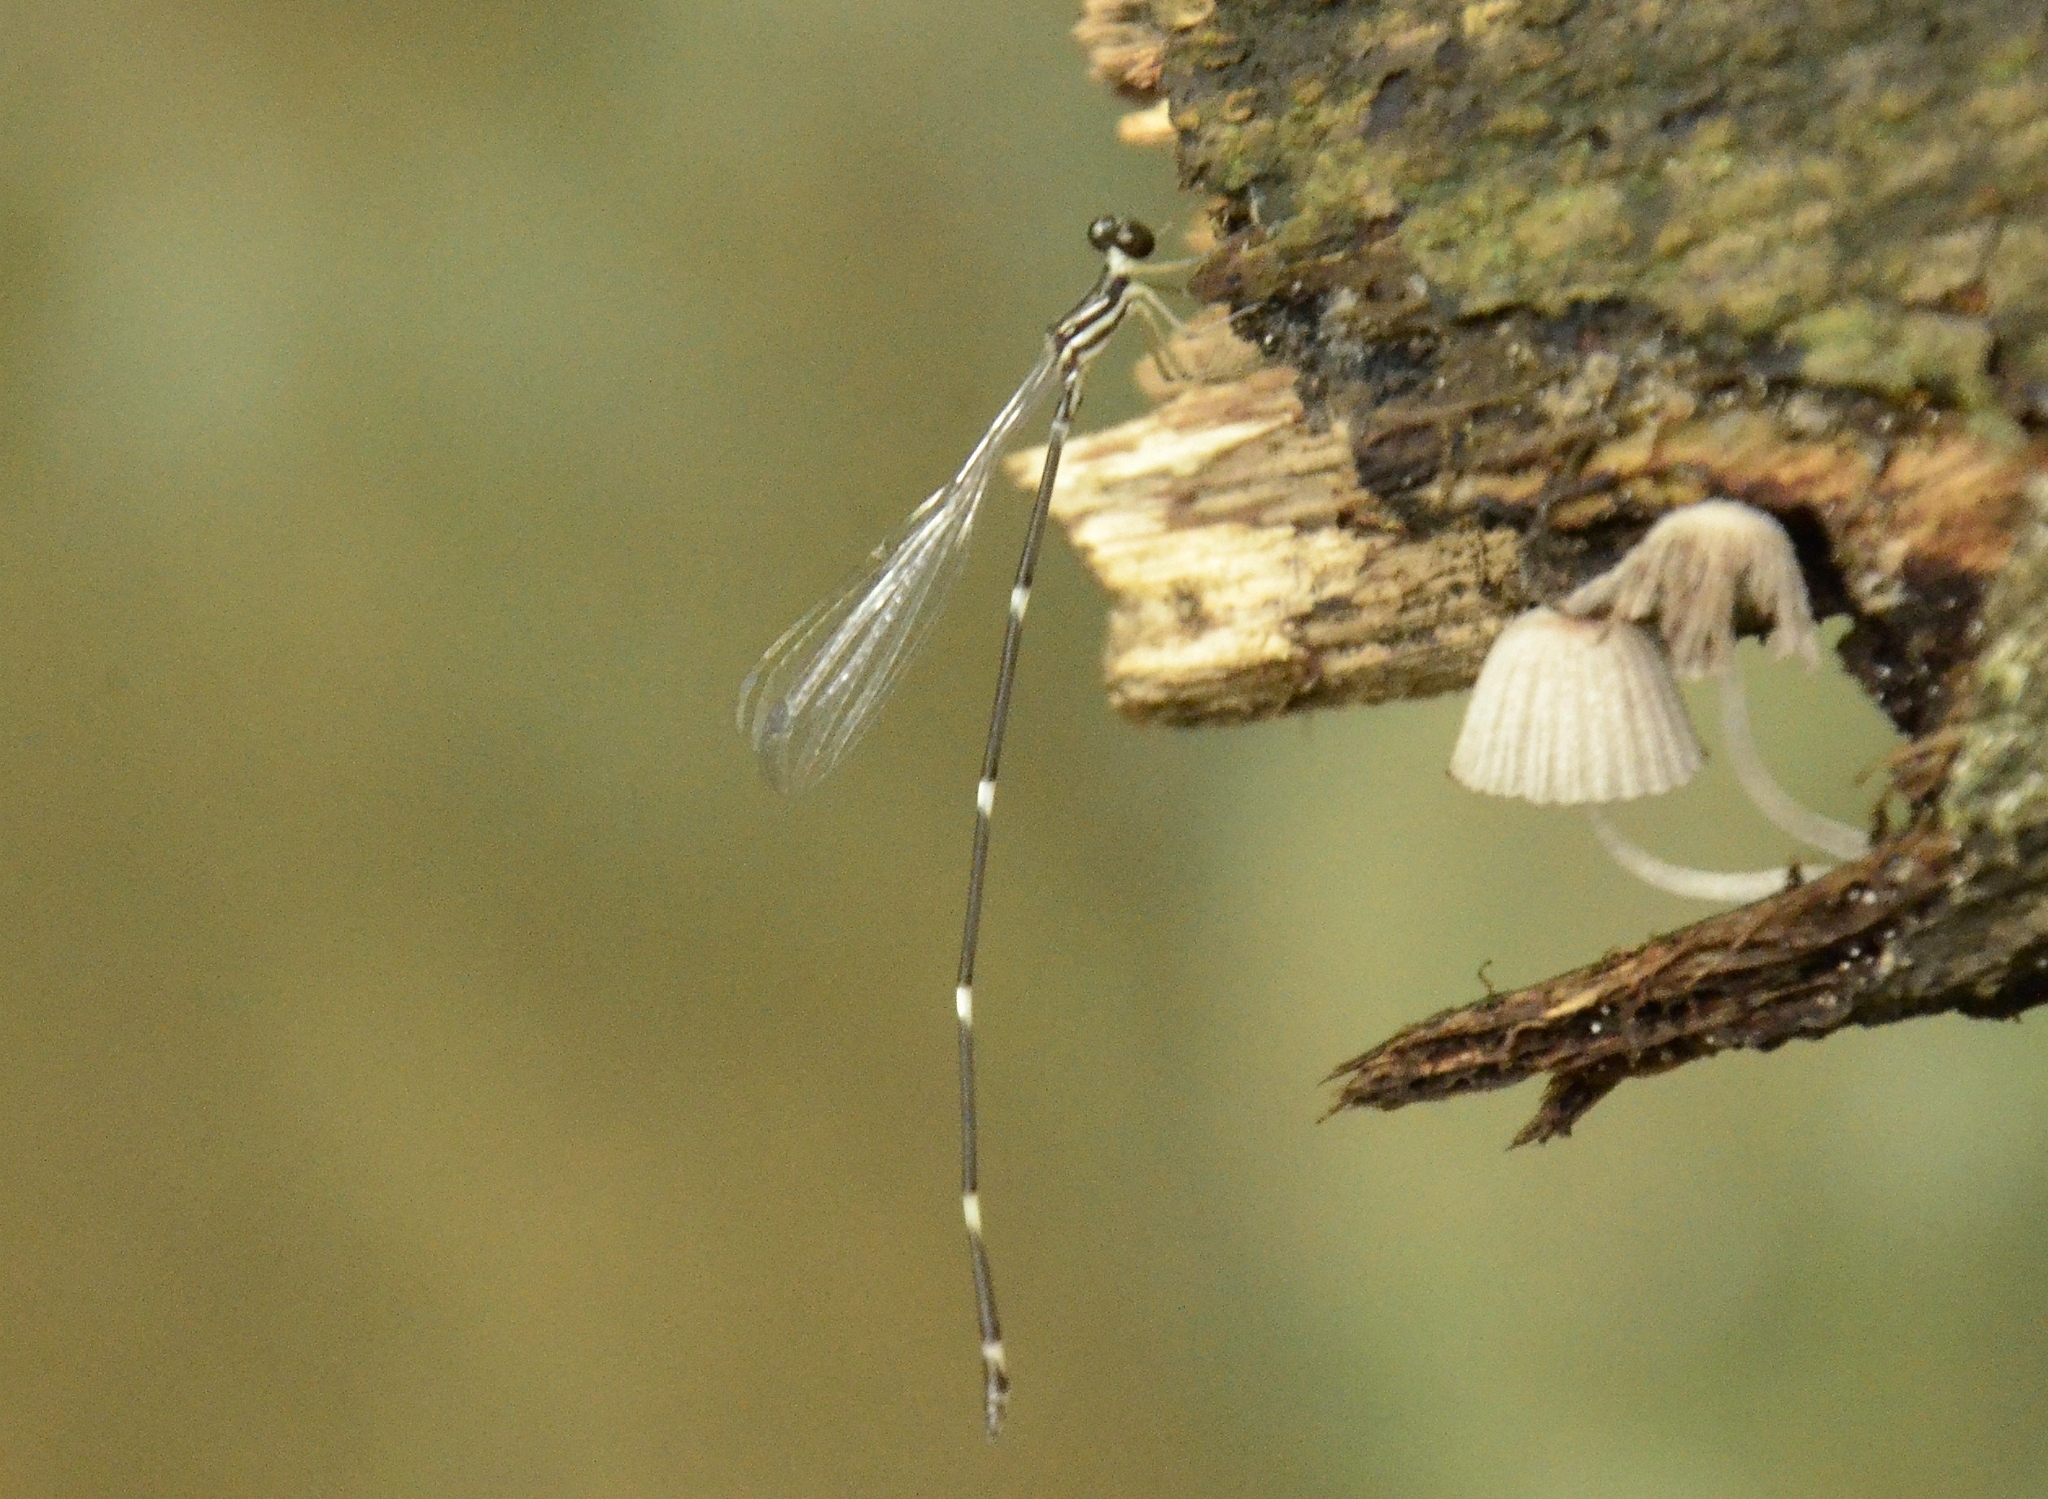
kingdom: Animalia
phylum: Arthropoda
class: Insecta
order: Odonata
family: Platystictidae
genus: Protosticta
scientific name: Protosticta gravelyi
